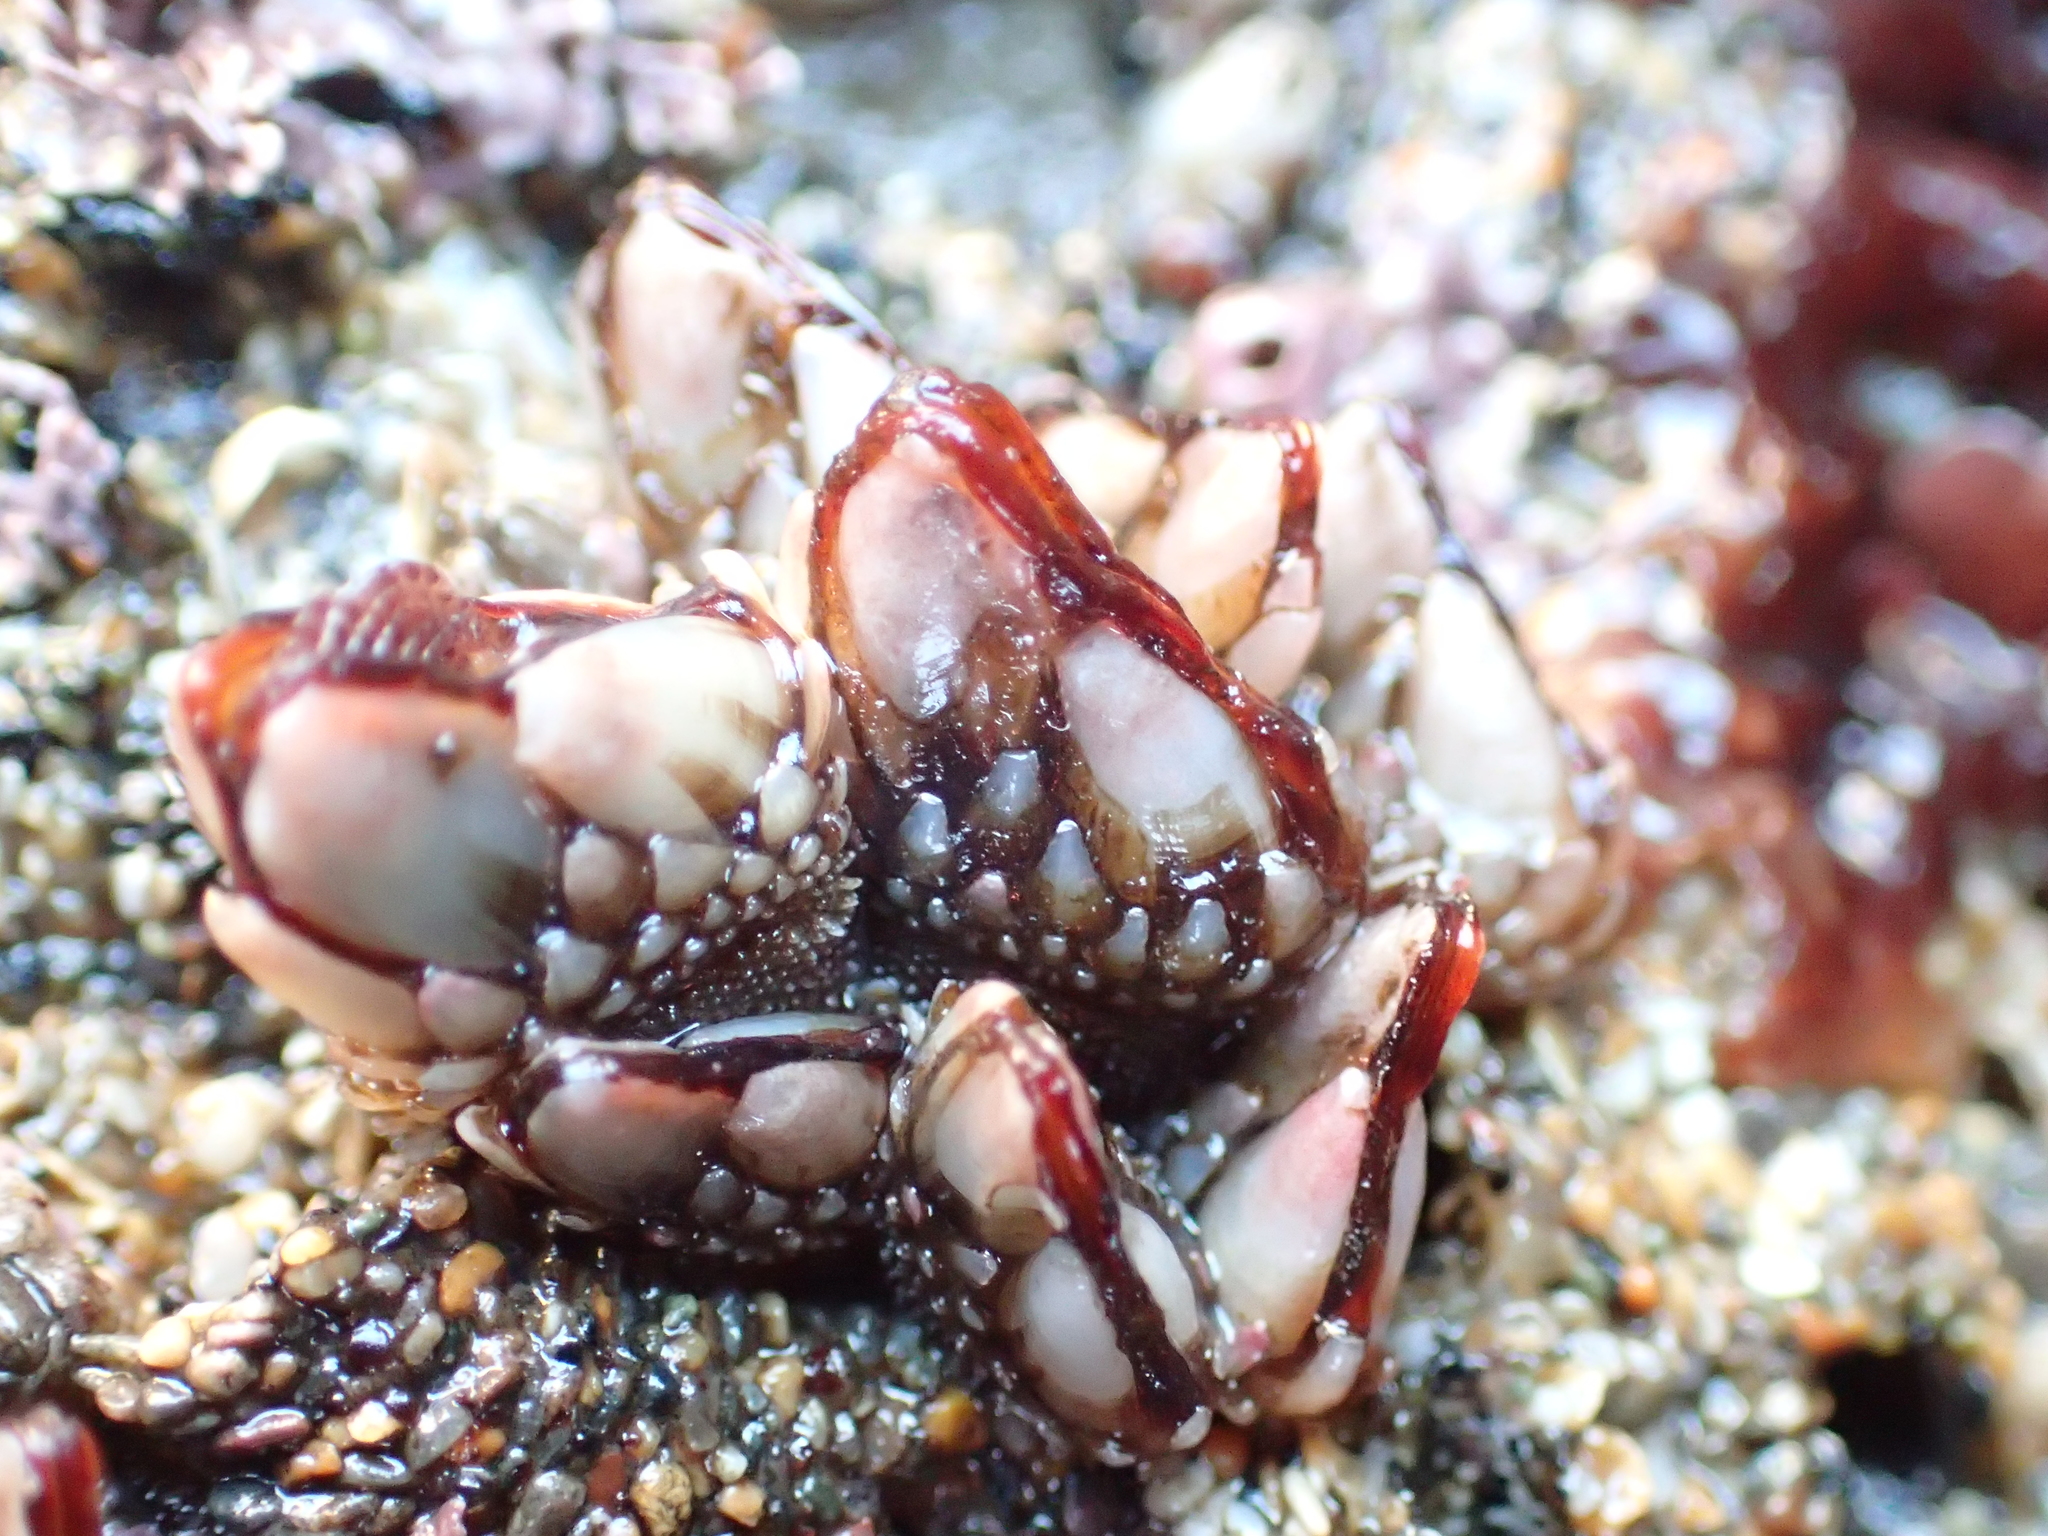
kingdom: Animalia
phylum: Arthropoda
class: Maxillopoda
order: Pedunculata
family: Pollicipedidae
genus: Pollicipes
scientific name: Pollicipes polymerus
